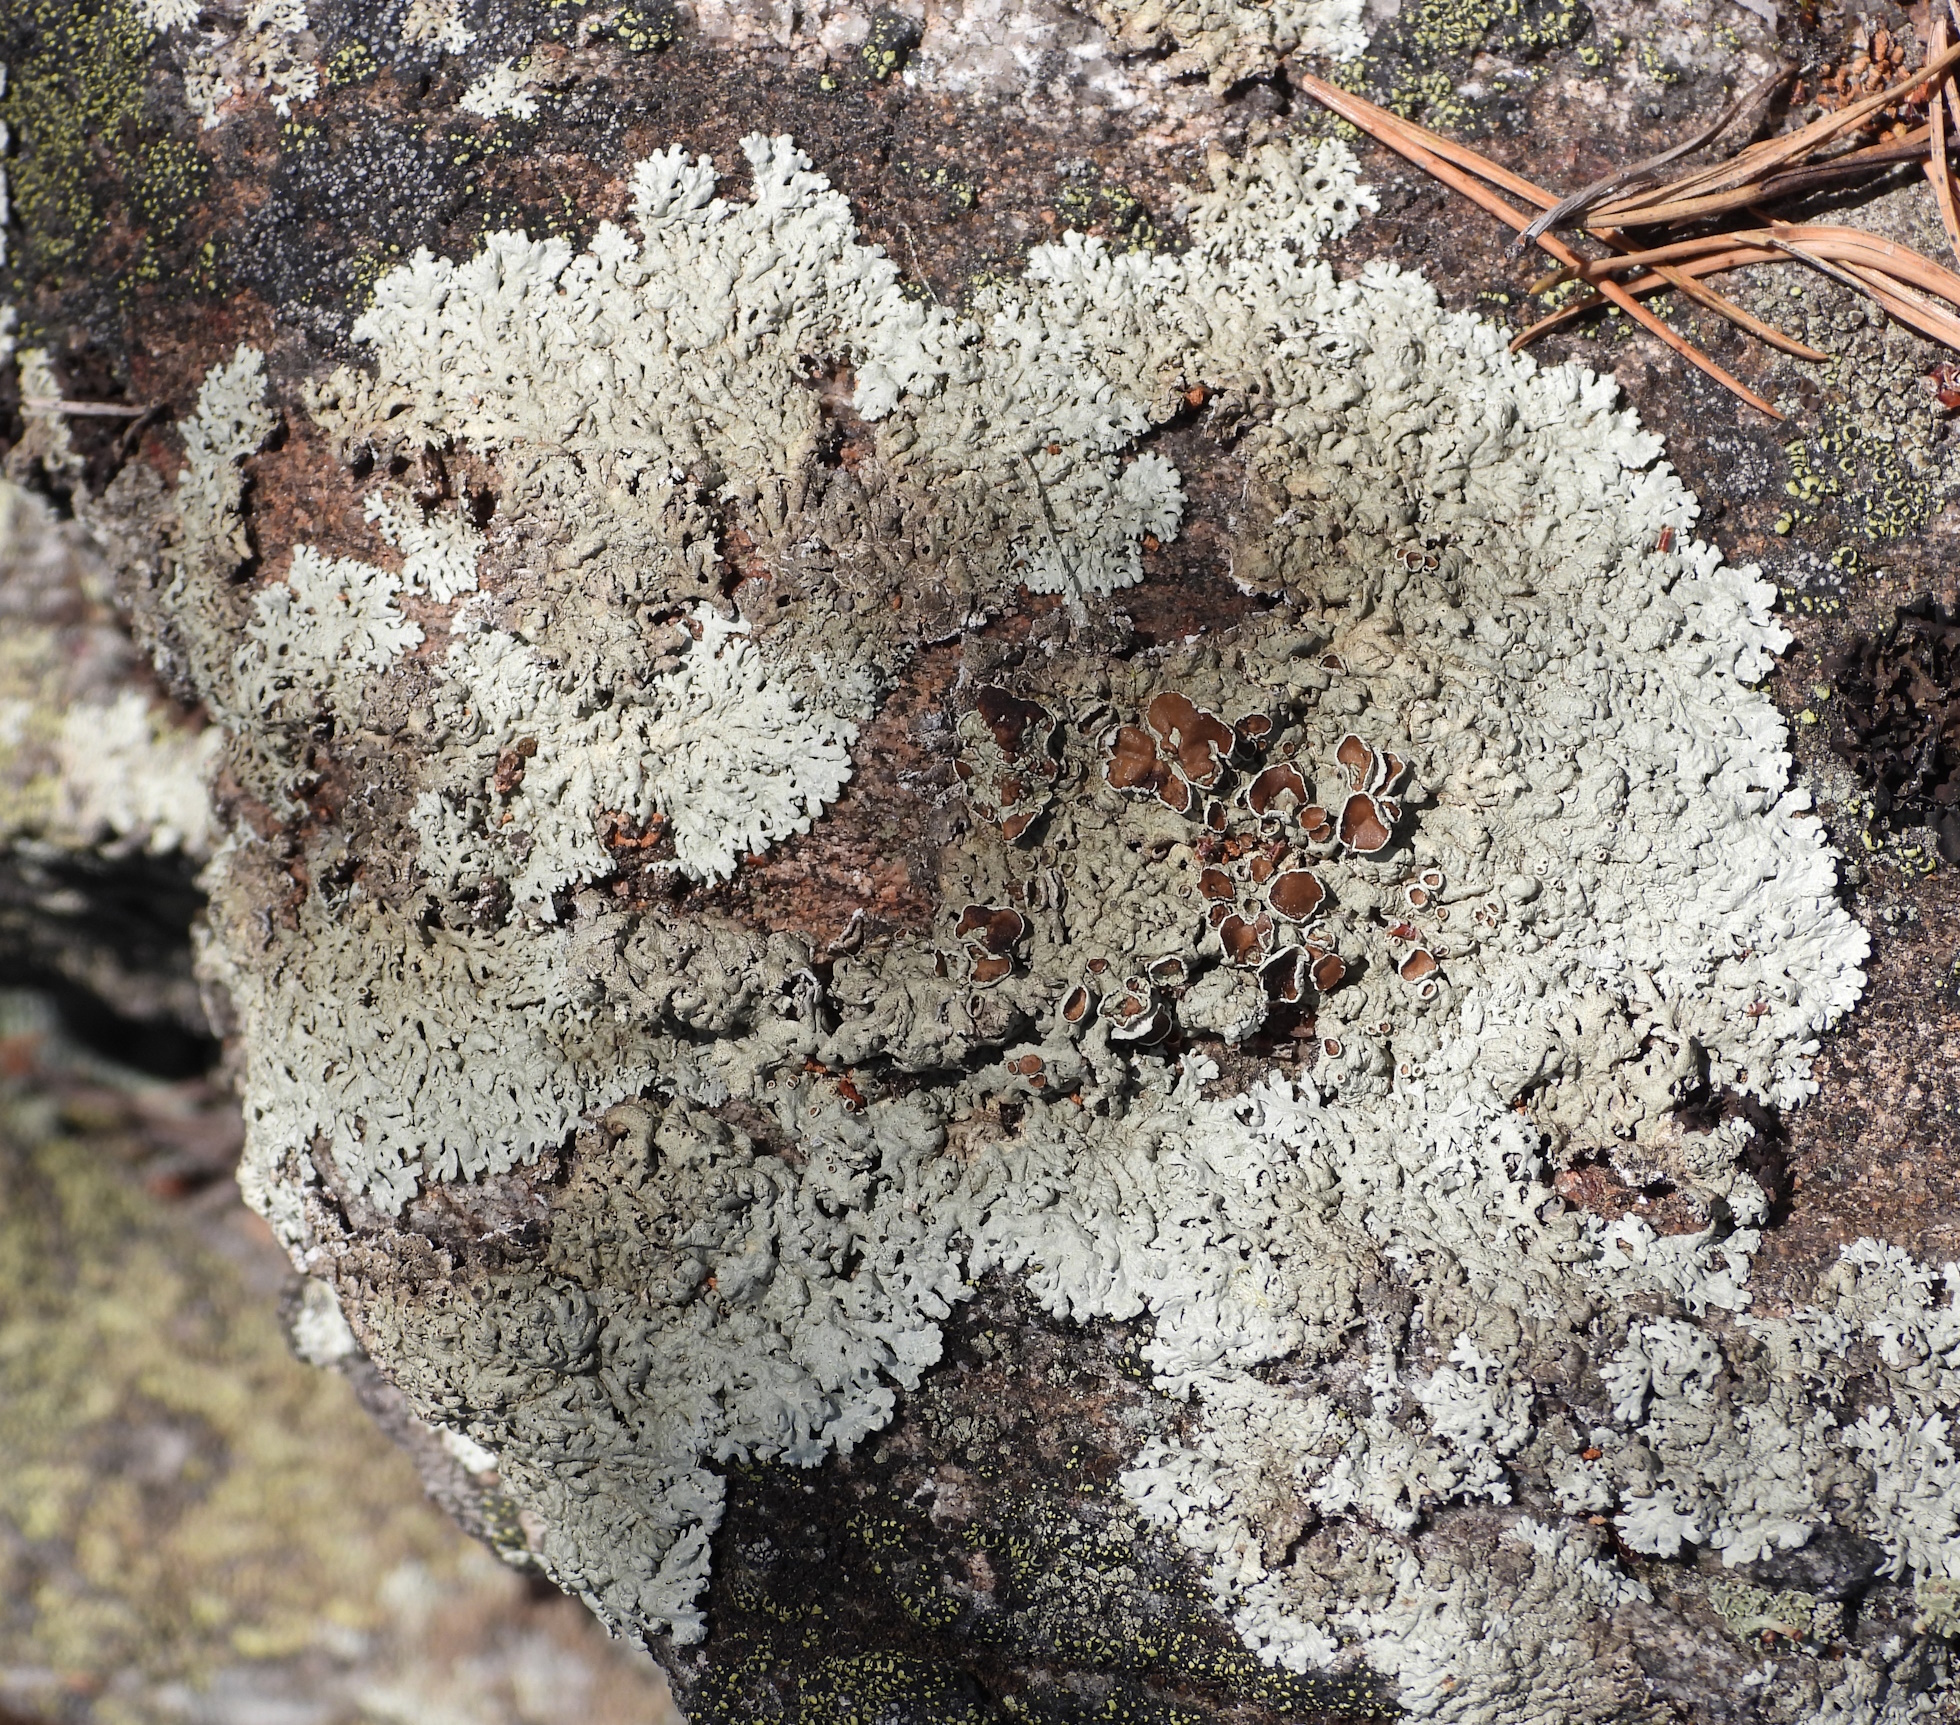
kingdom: Fungi
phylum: Ascomycota
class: Lecanoromycetes
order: Lecanorales
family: Parmeliaceae
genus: Arctoparmelia
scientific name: Arctoparmelia centrifuga
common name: Concentric ring lichen
